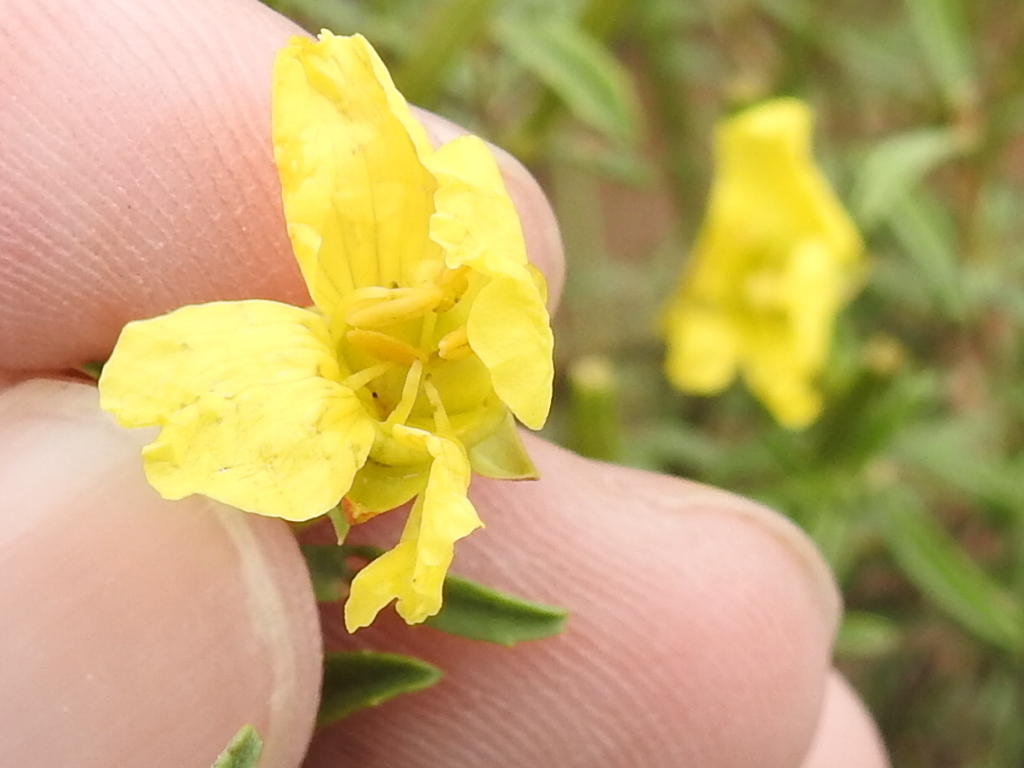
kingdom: Plantae
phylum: Tracheophyta
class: Magnoliopsida
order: Myrtales
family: Onagraceae
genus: Oenothera
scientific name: Oenothera
